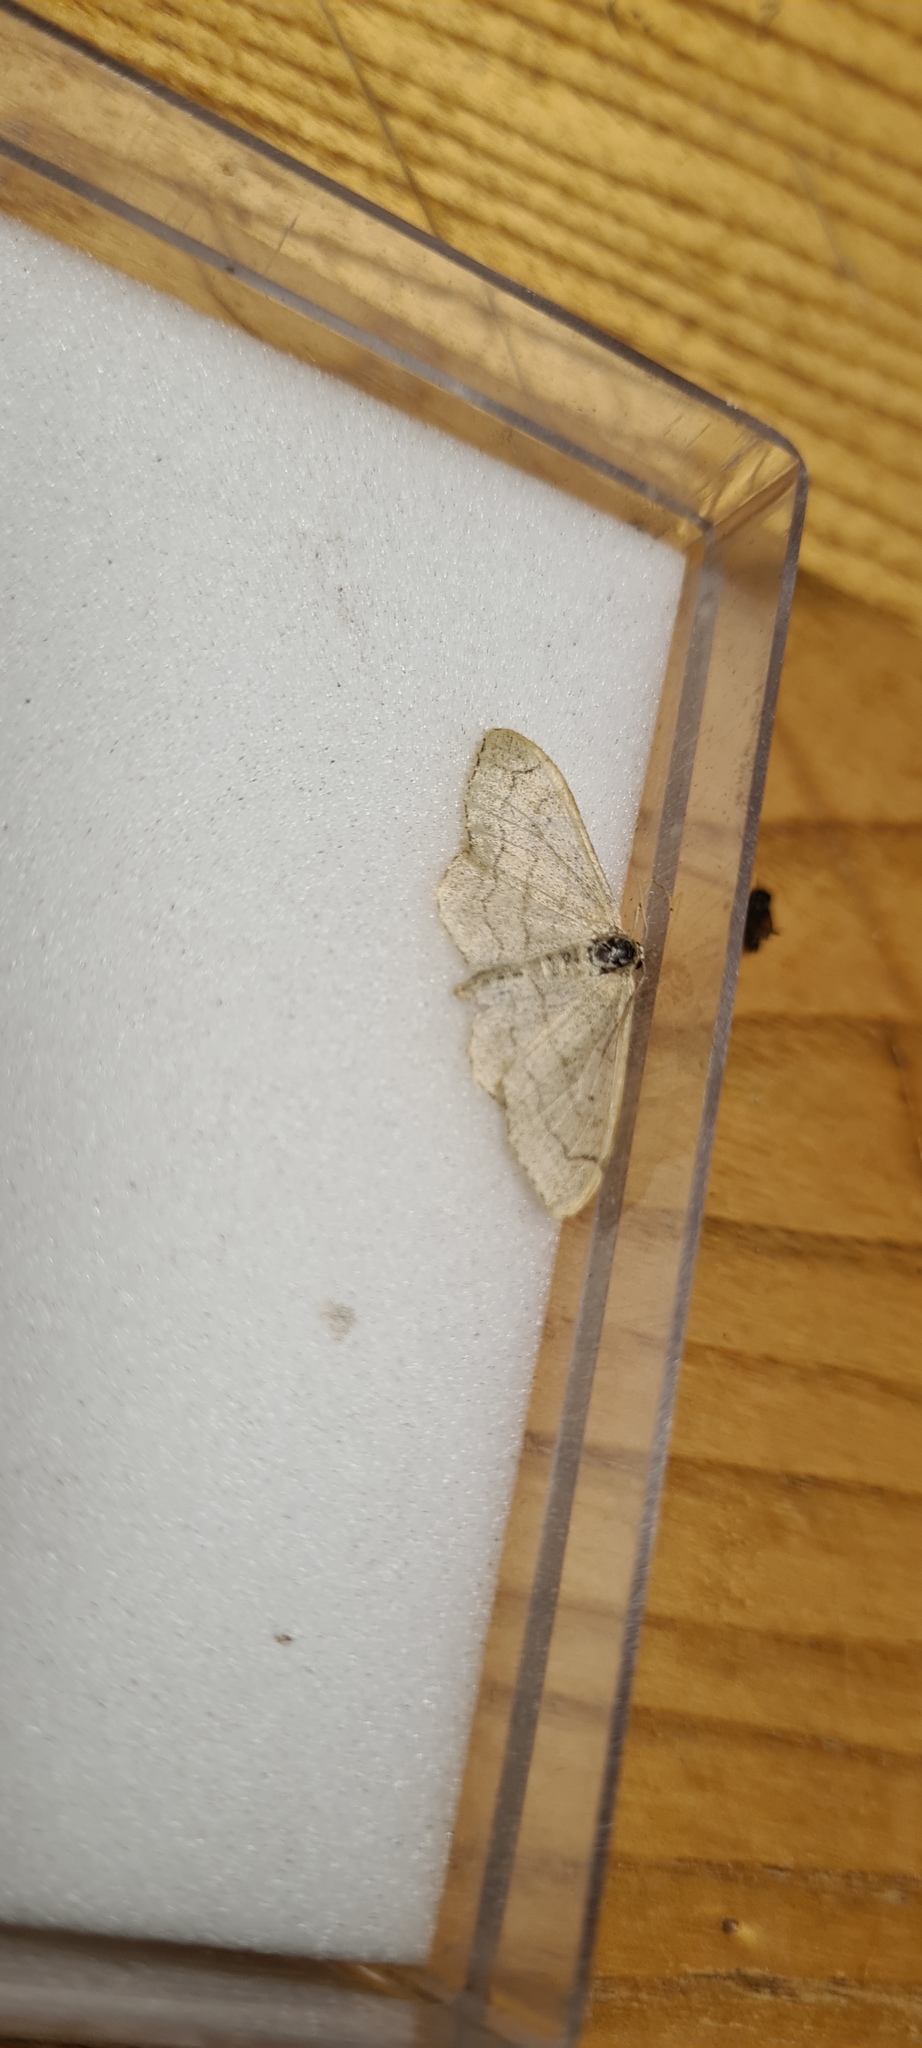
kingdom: Animalia
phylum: Arthropoda
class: Insecta
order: Lepidoptera
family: Geometridae
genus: Idaea
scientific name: Idaea aversata
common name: Riband wave
